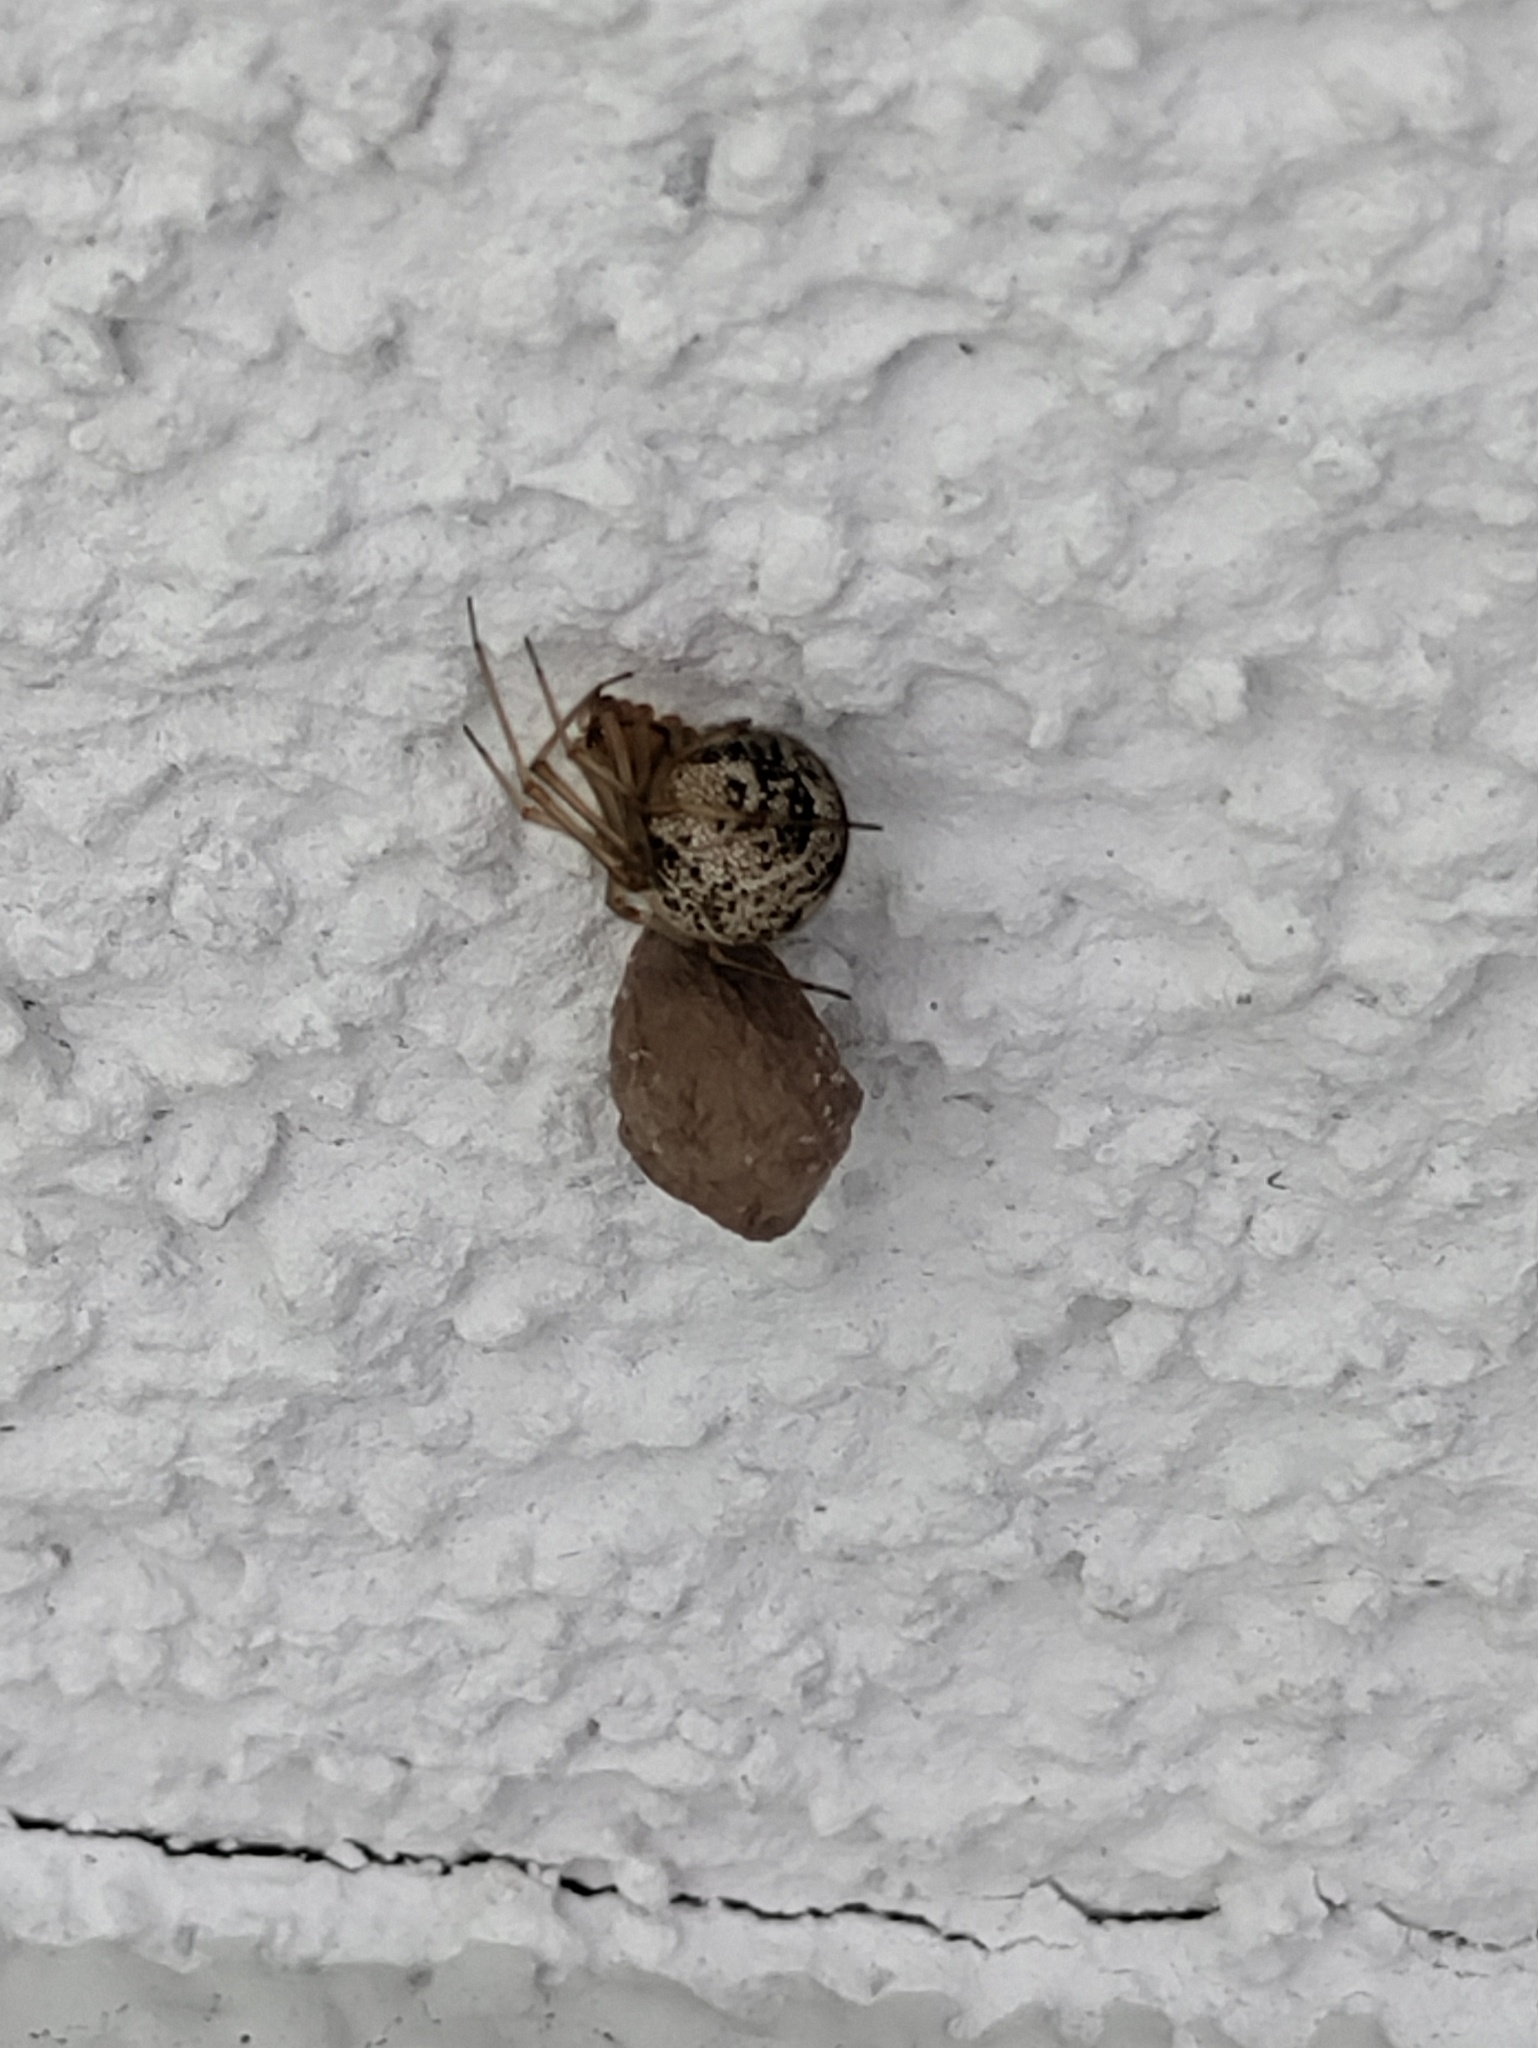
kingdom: Animalia
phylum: Arthropoda
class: Arachnida
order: Araneae
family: Theridiidae
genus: Parasteatoda
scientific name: Parasteatoda tepidariorum
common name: Common house spider
